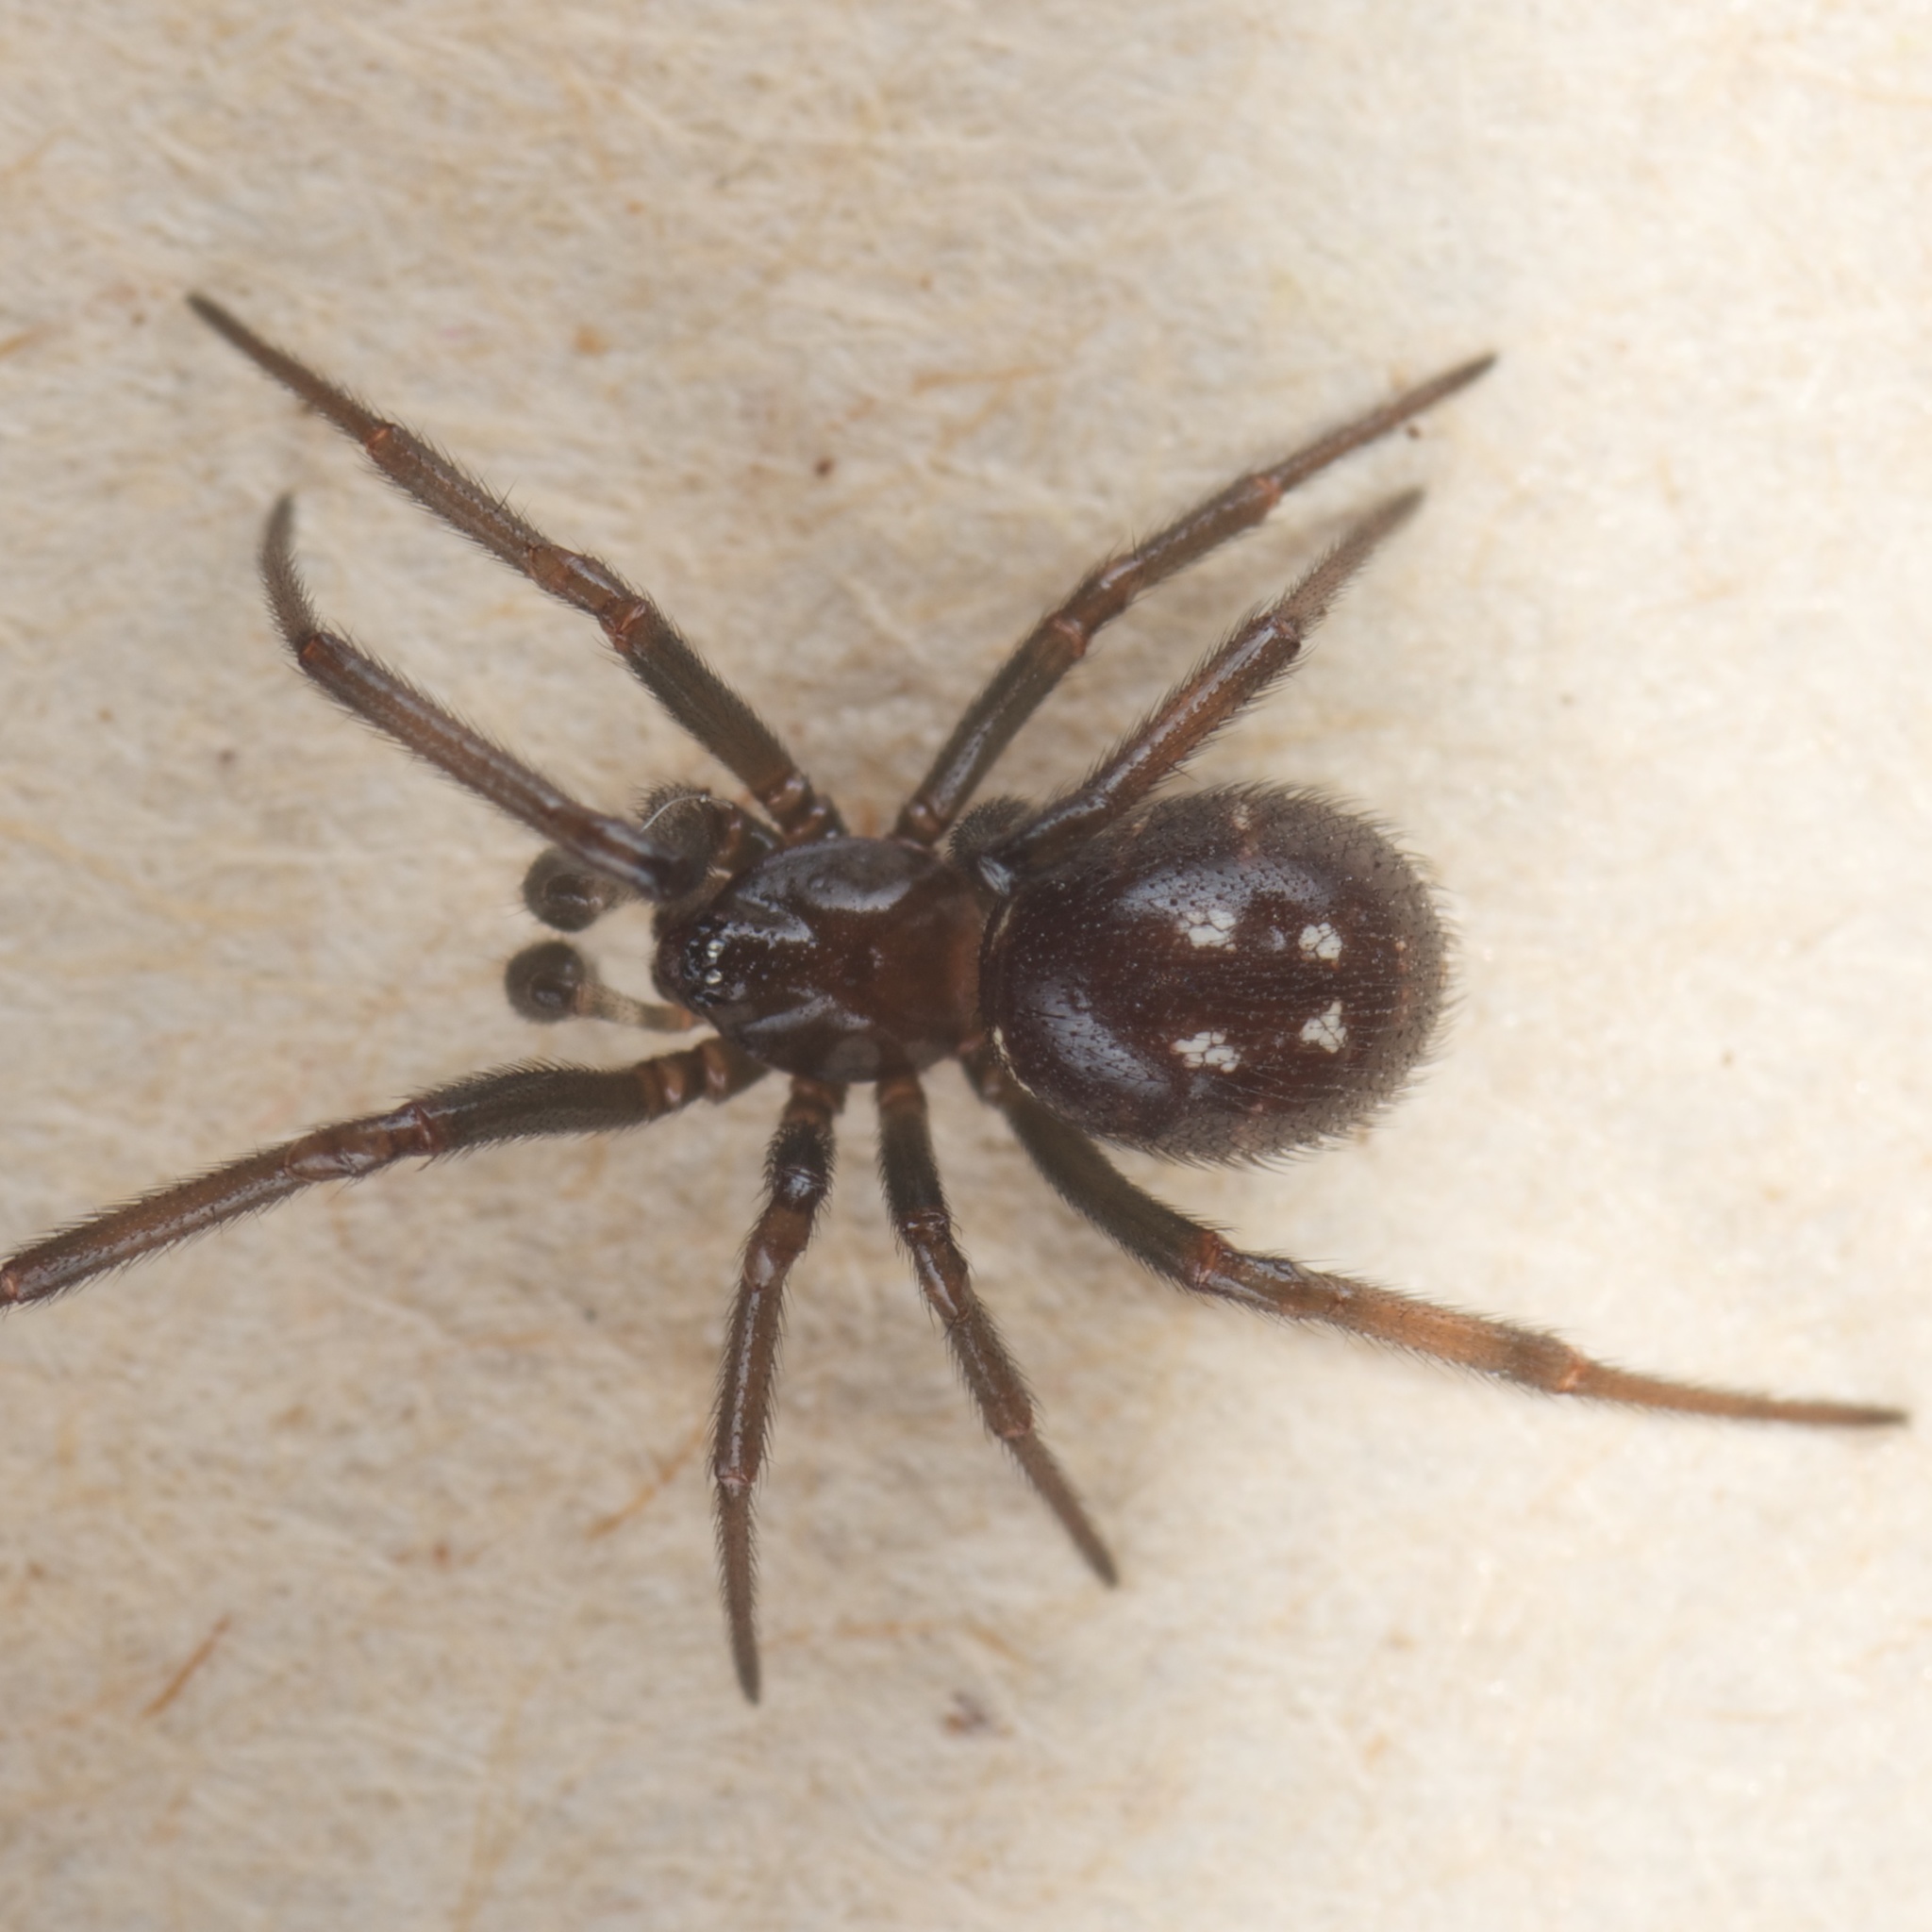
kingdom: Animalia
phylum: Arthropoda
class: Arachnida
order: Araneae
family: Theridiidae
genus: Steatoda
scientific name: Steatoda capensis
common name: Cobweb weaver
